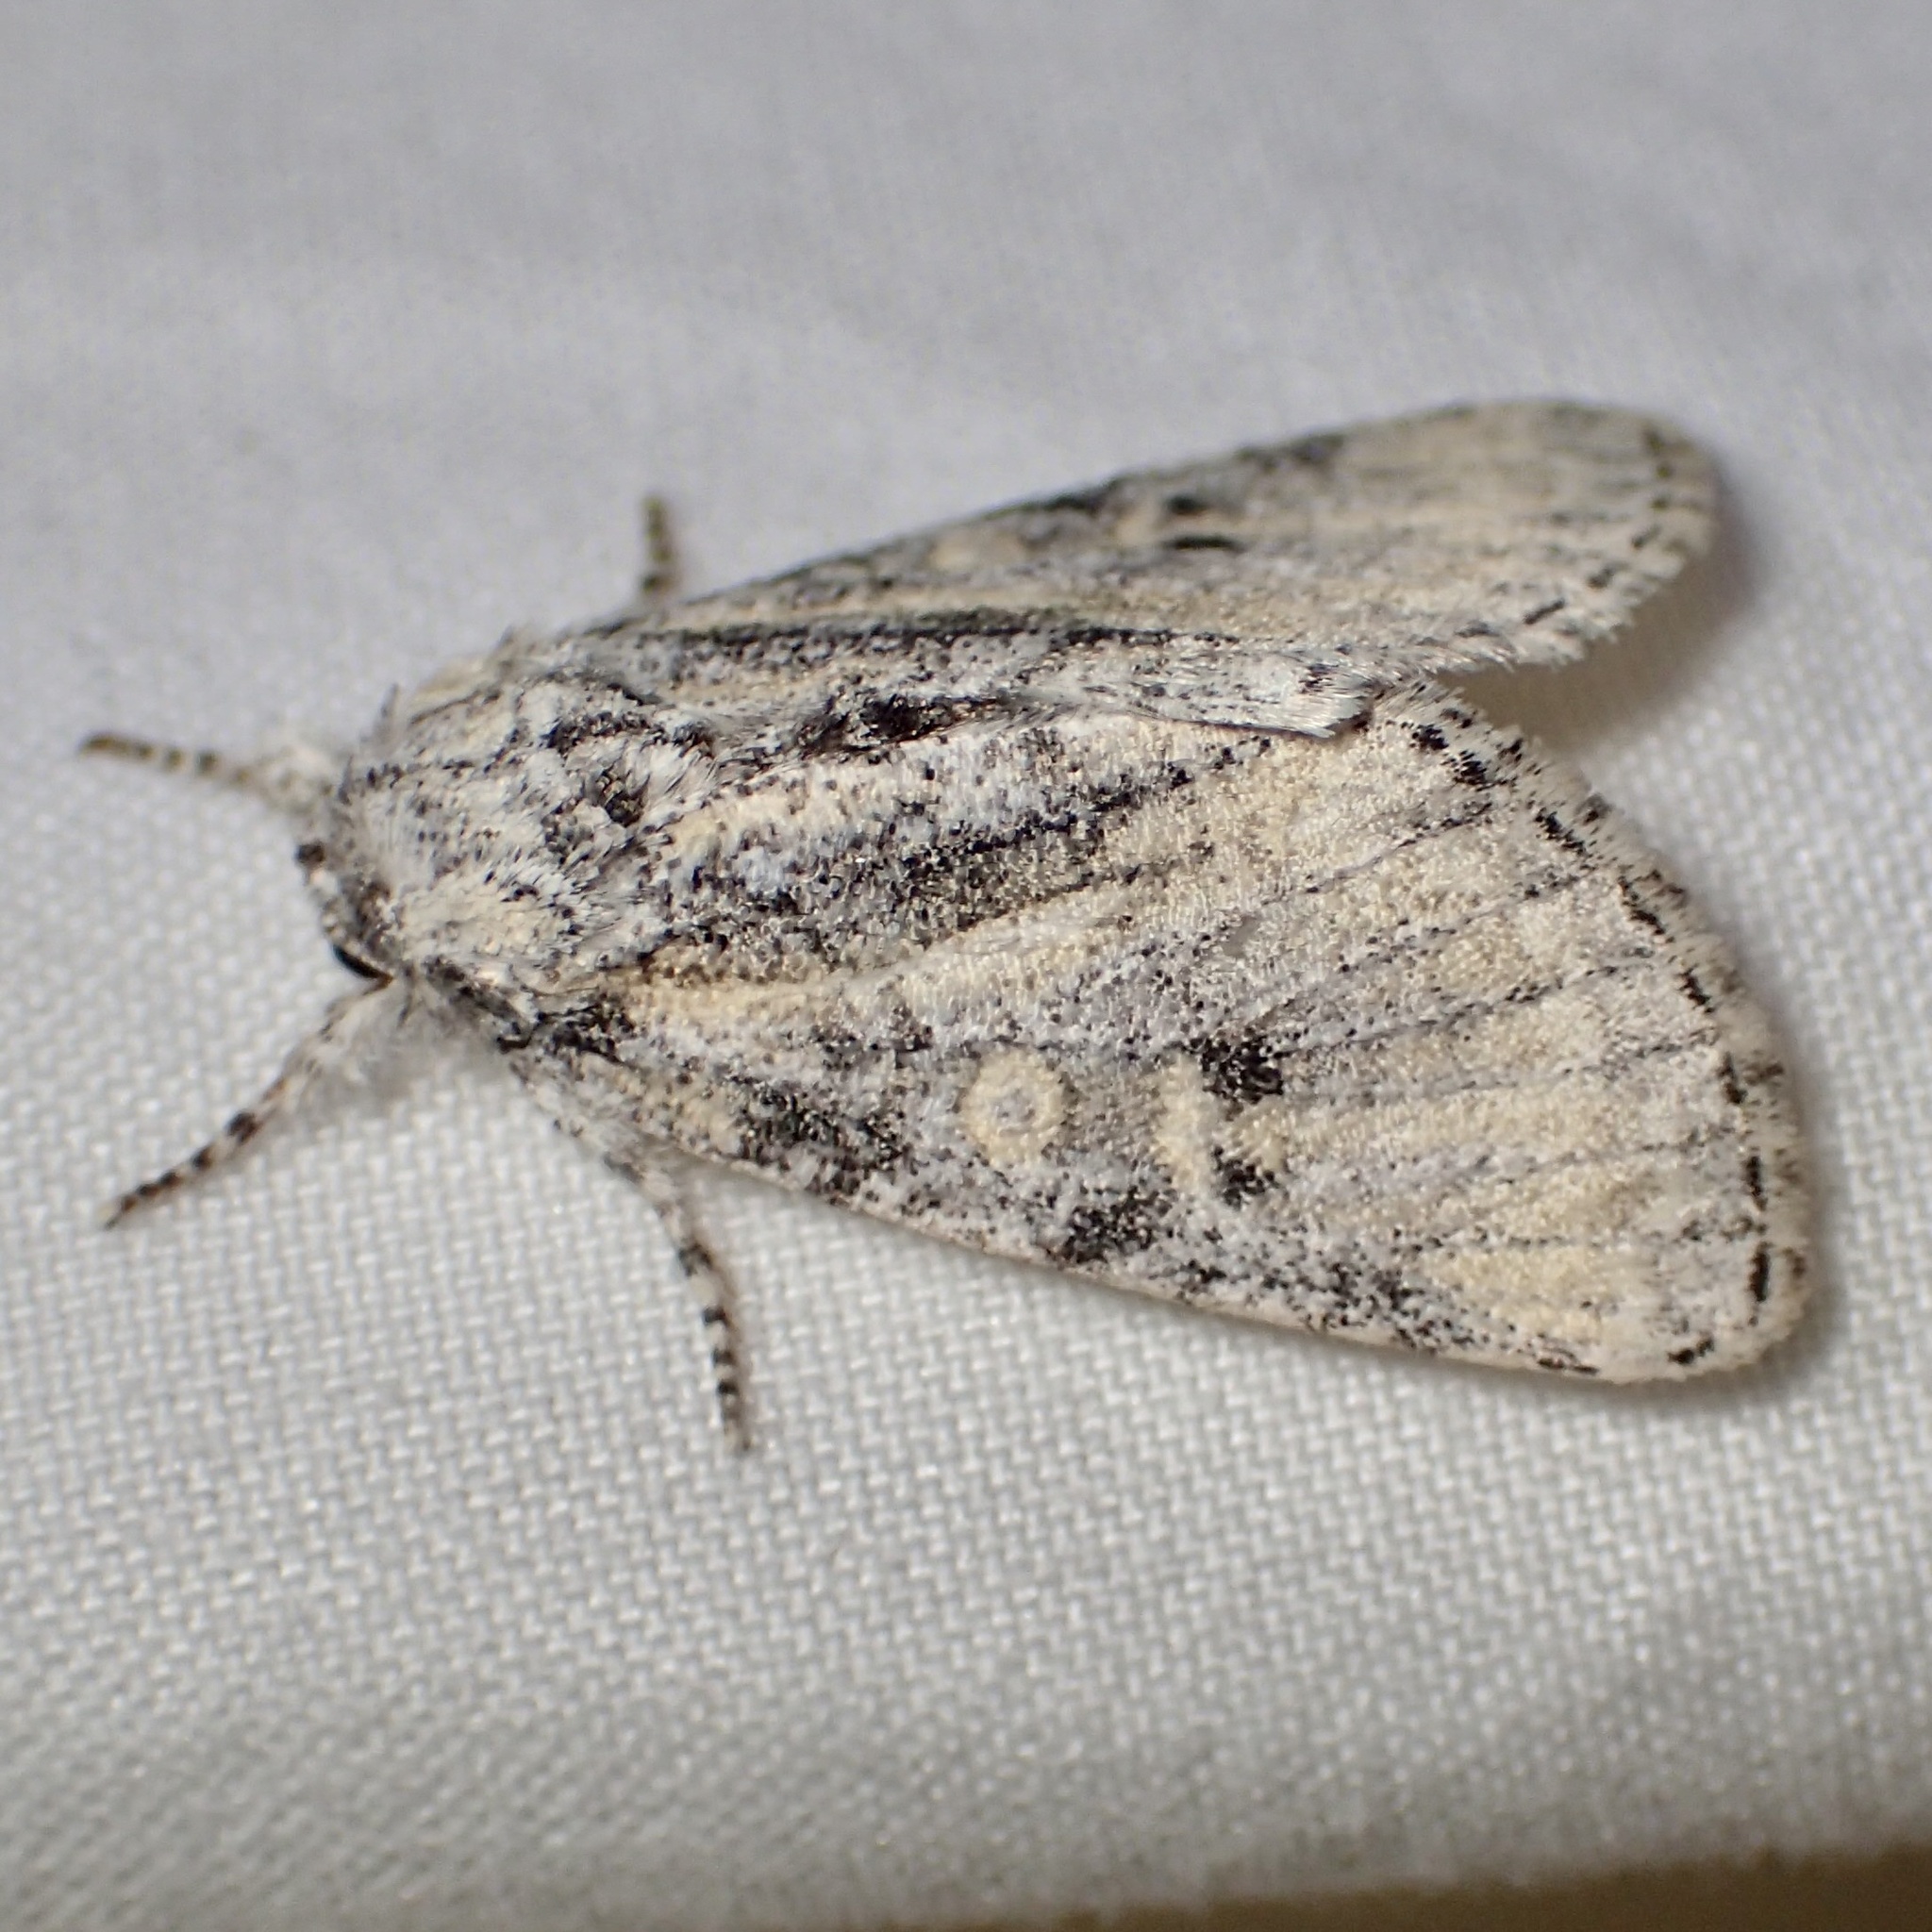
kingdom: Animalia
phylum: Arthropoda
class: Insecta
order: Lepidoptera
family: Noctuidae
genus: Raphia
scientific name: Raphia frater
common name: Brother
